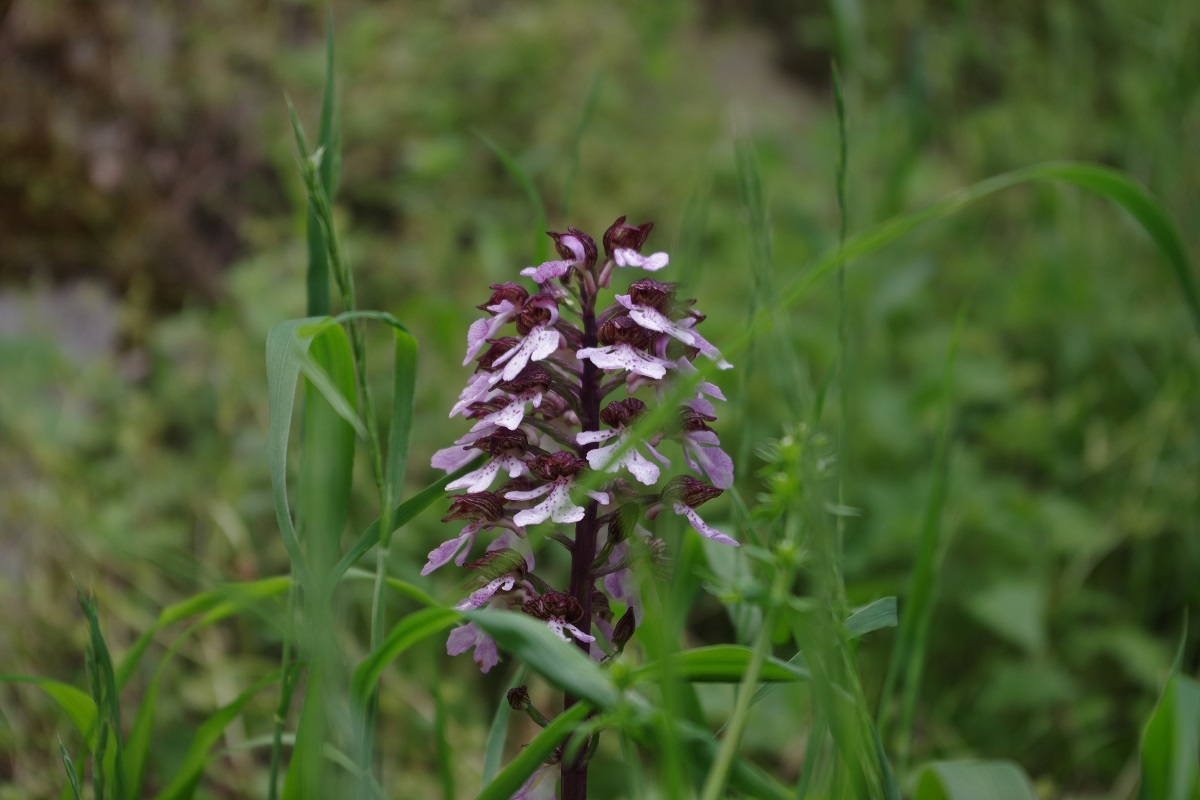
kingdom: Plantae
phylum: Tracheophyta
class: Liliopsida
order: Asparagales
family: Orchidaceae
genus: Orchis
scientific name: Orchis purpurea
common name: Lady orchid
